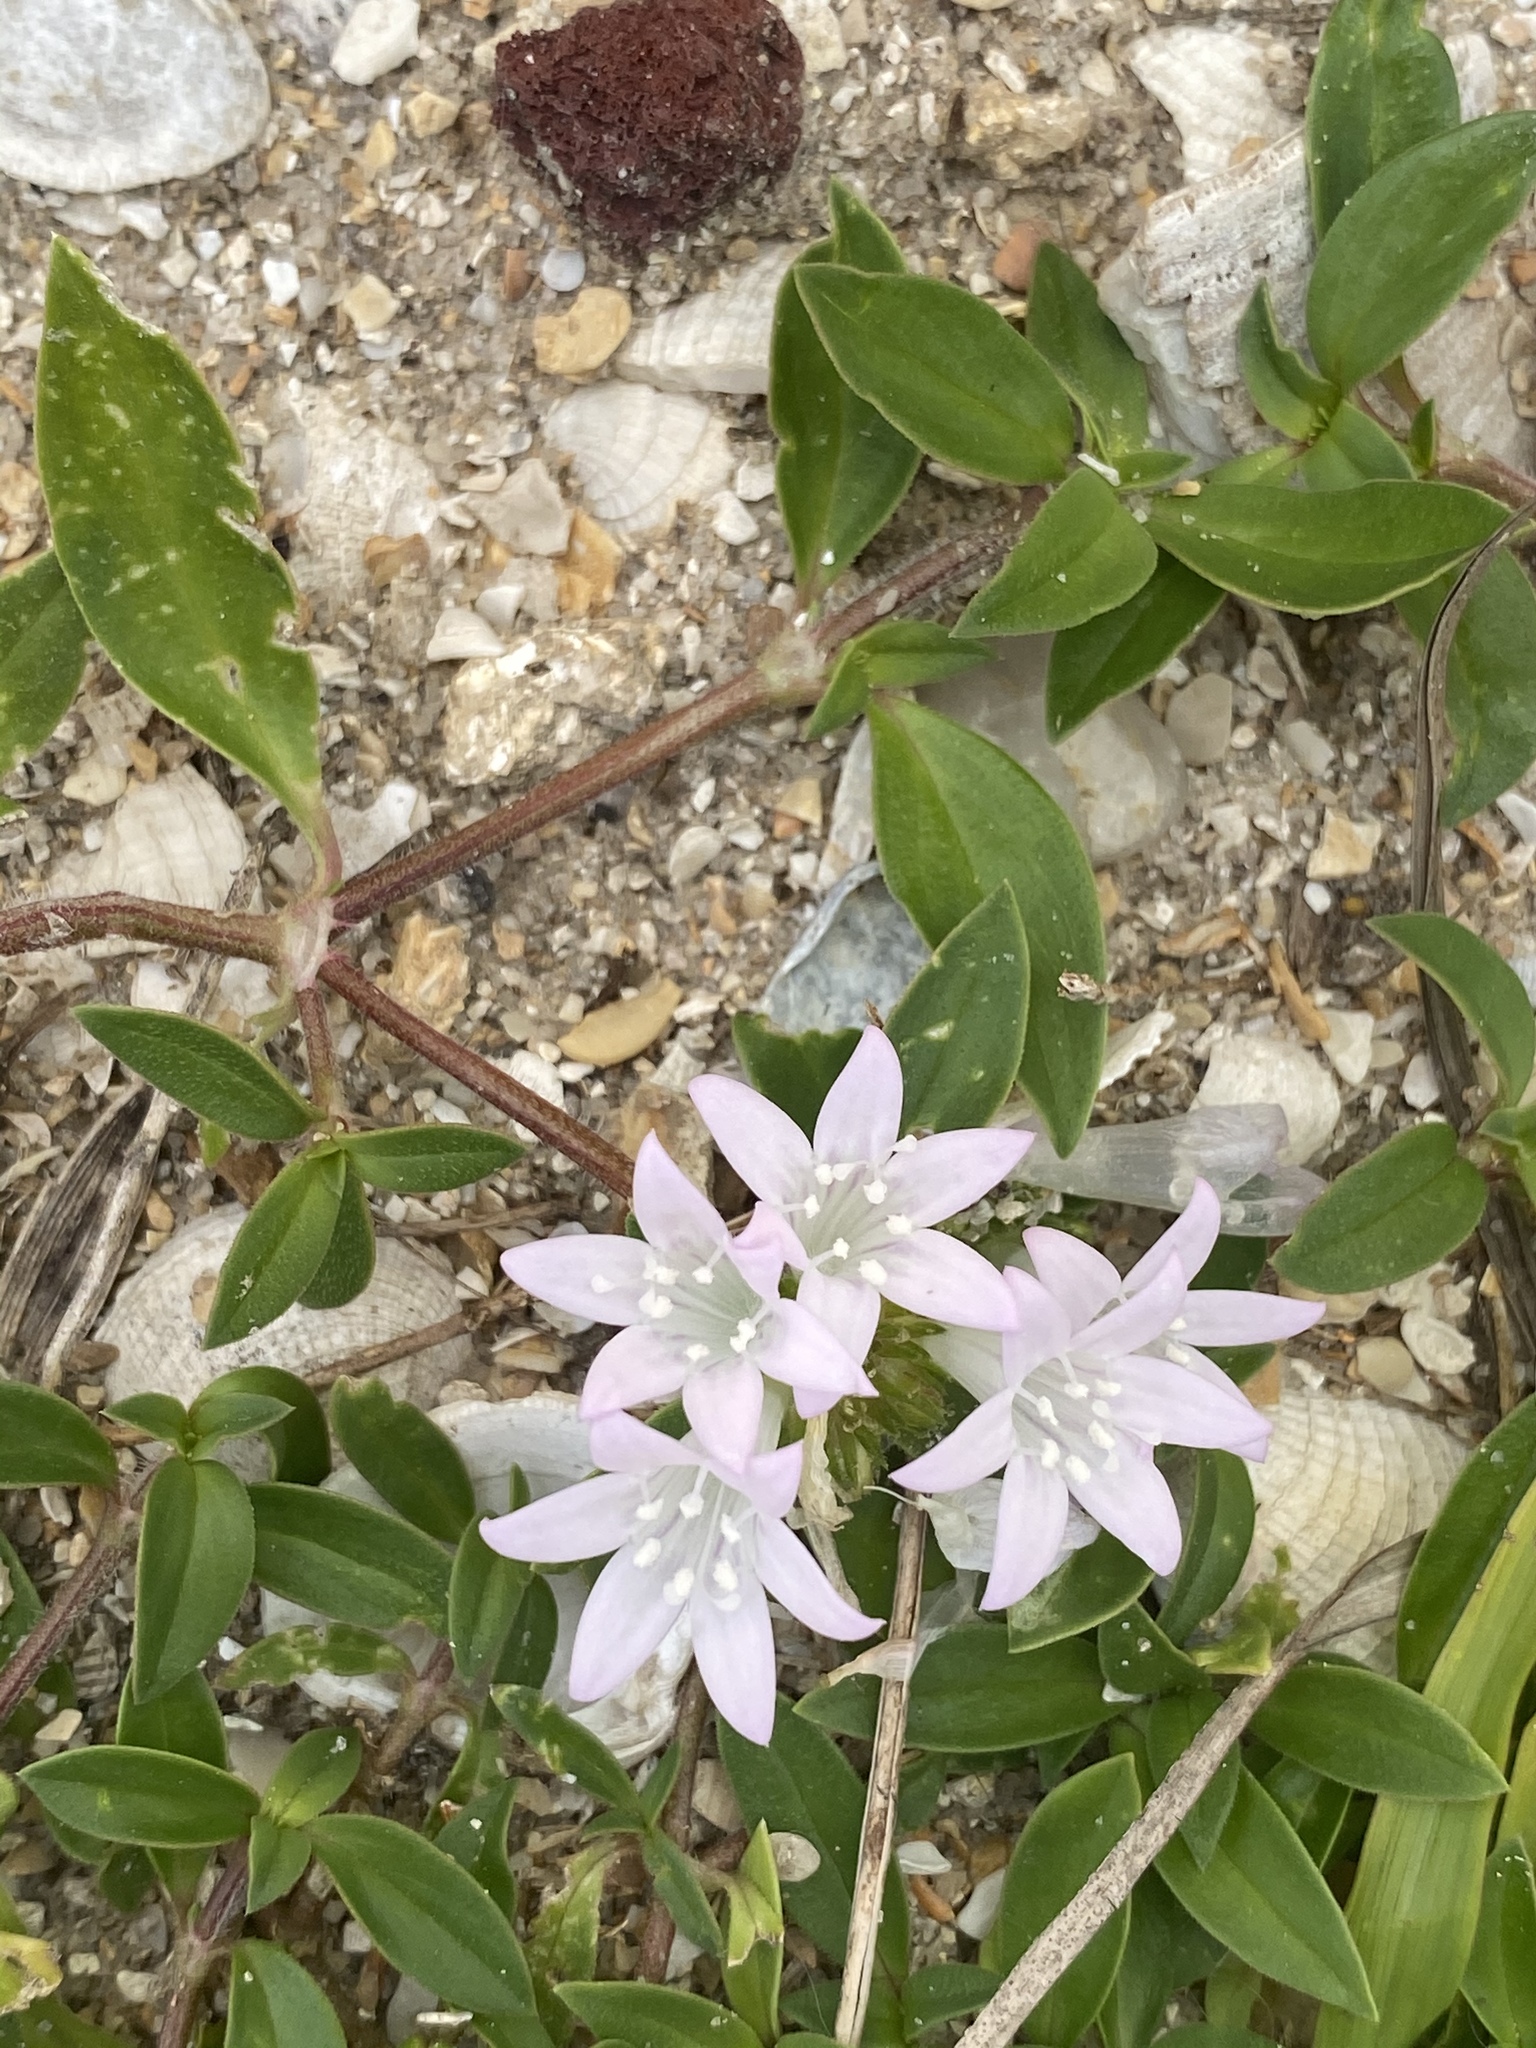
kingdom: Plantae
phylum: Tracheophyta
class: Magnoliopsida
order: Gentianales
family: Rubiaceae
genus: Richardia
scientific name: Richardia grandiflora
